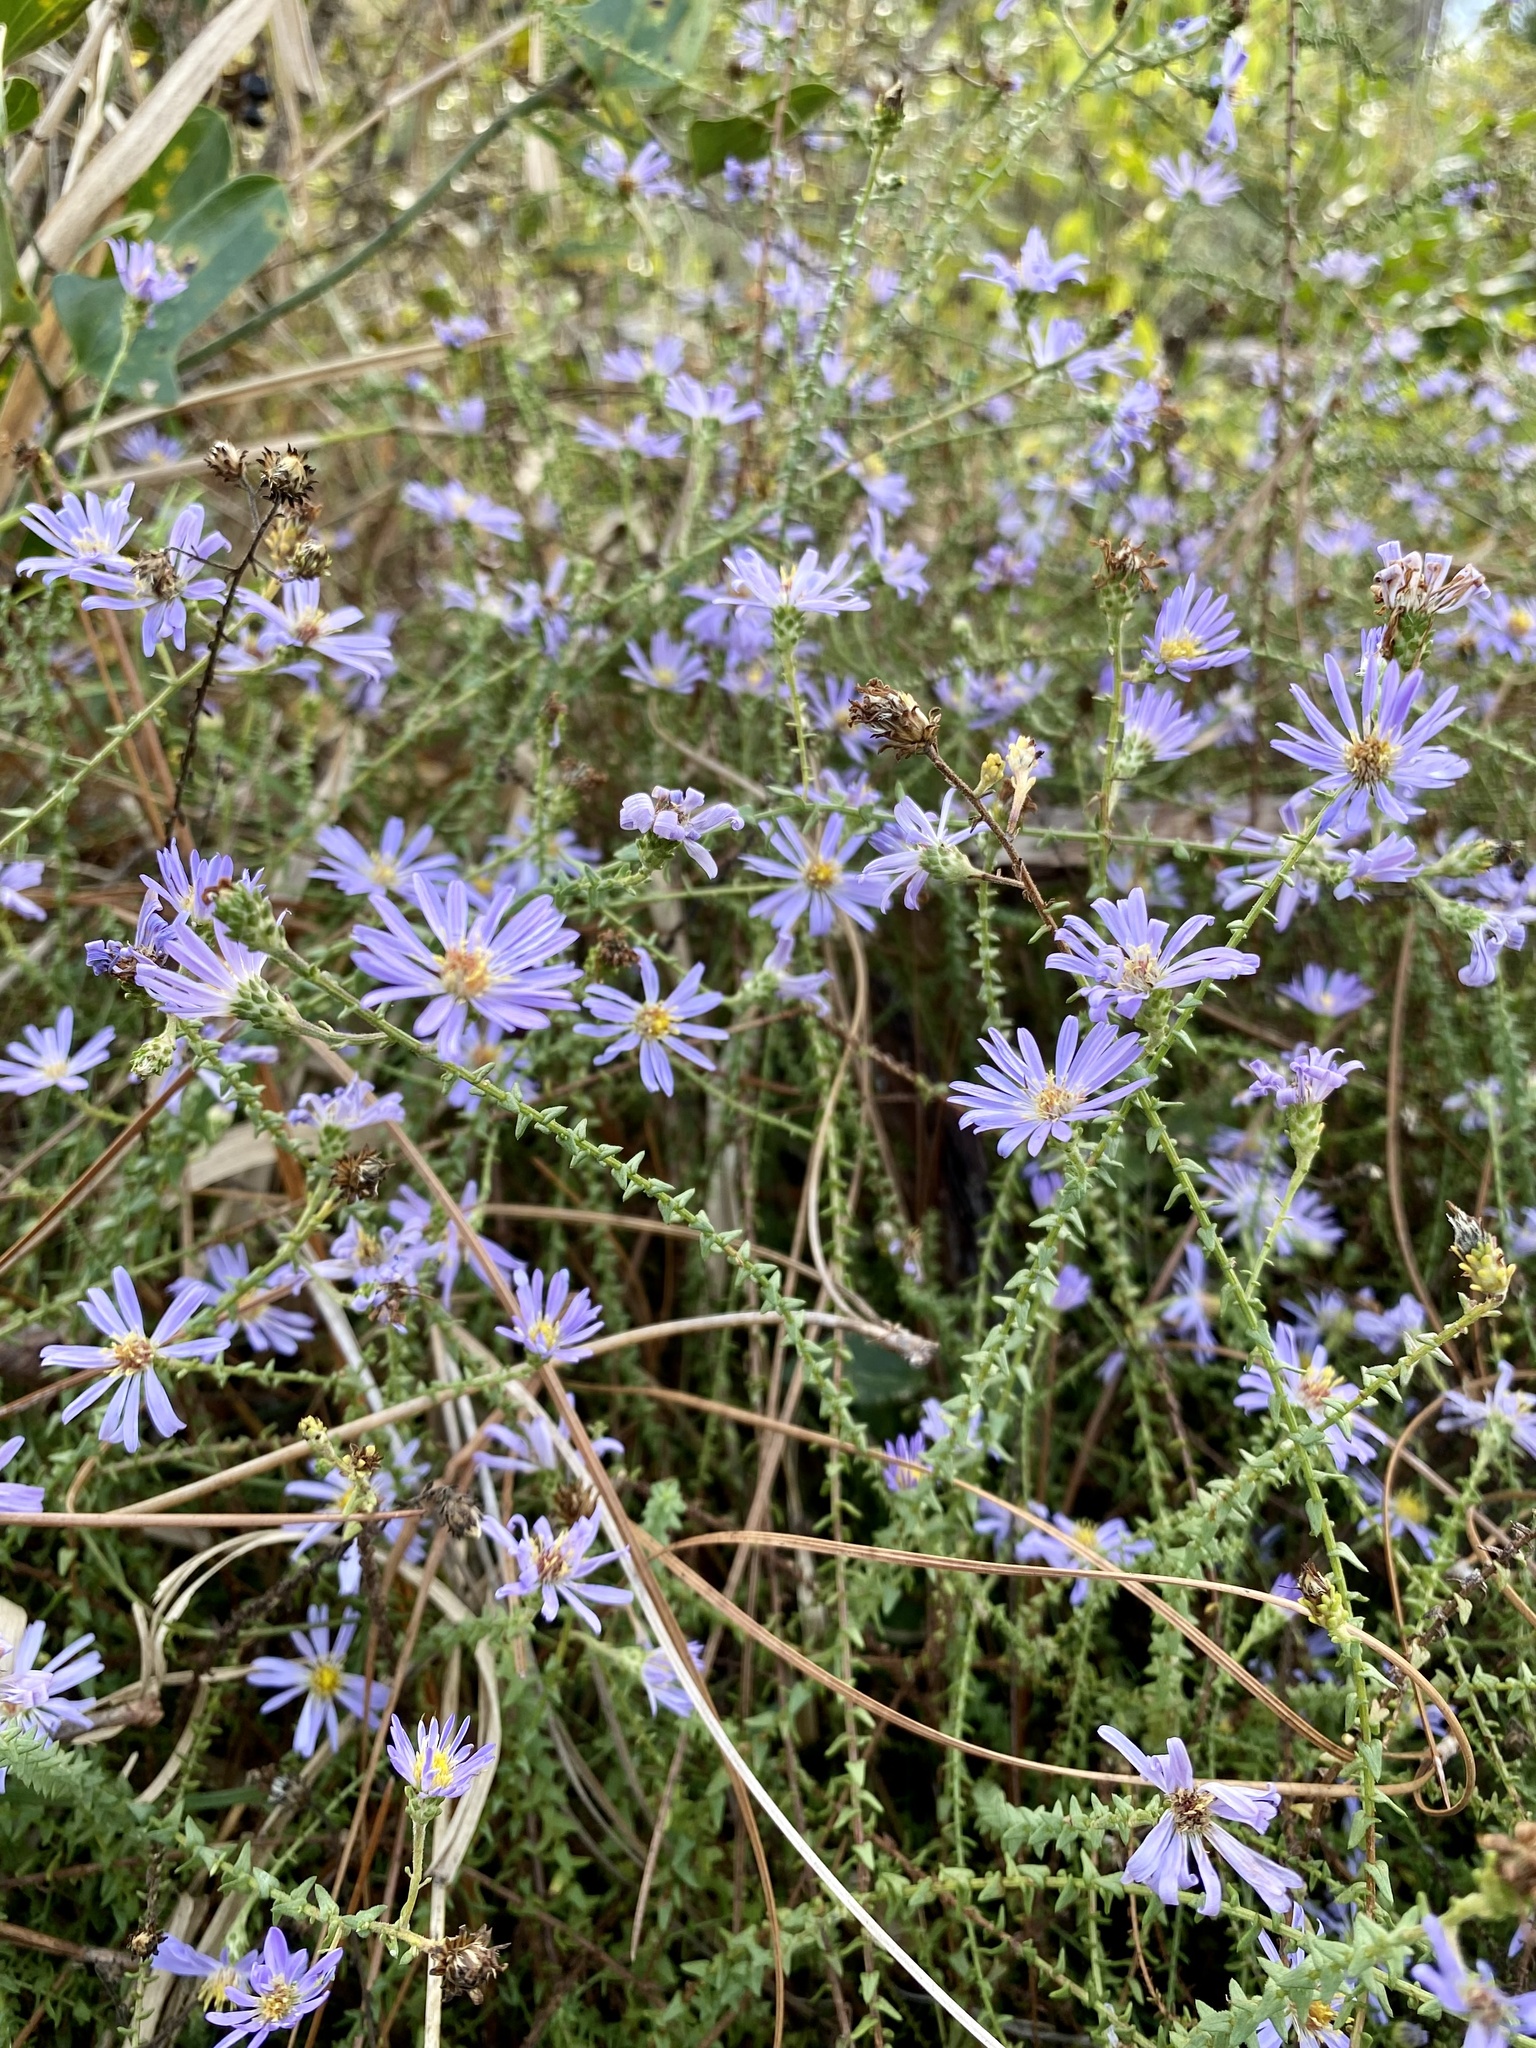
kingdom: Plantae
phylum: Tracheophyta
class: Magnoliopsida
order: Asterales
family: Asteraceae
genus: Symphyotrichum
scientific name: Symphyotrichum walteri
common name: Walter's aster
